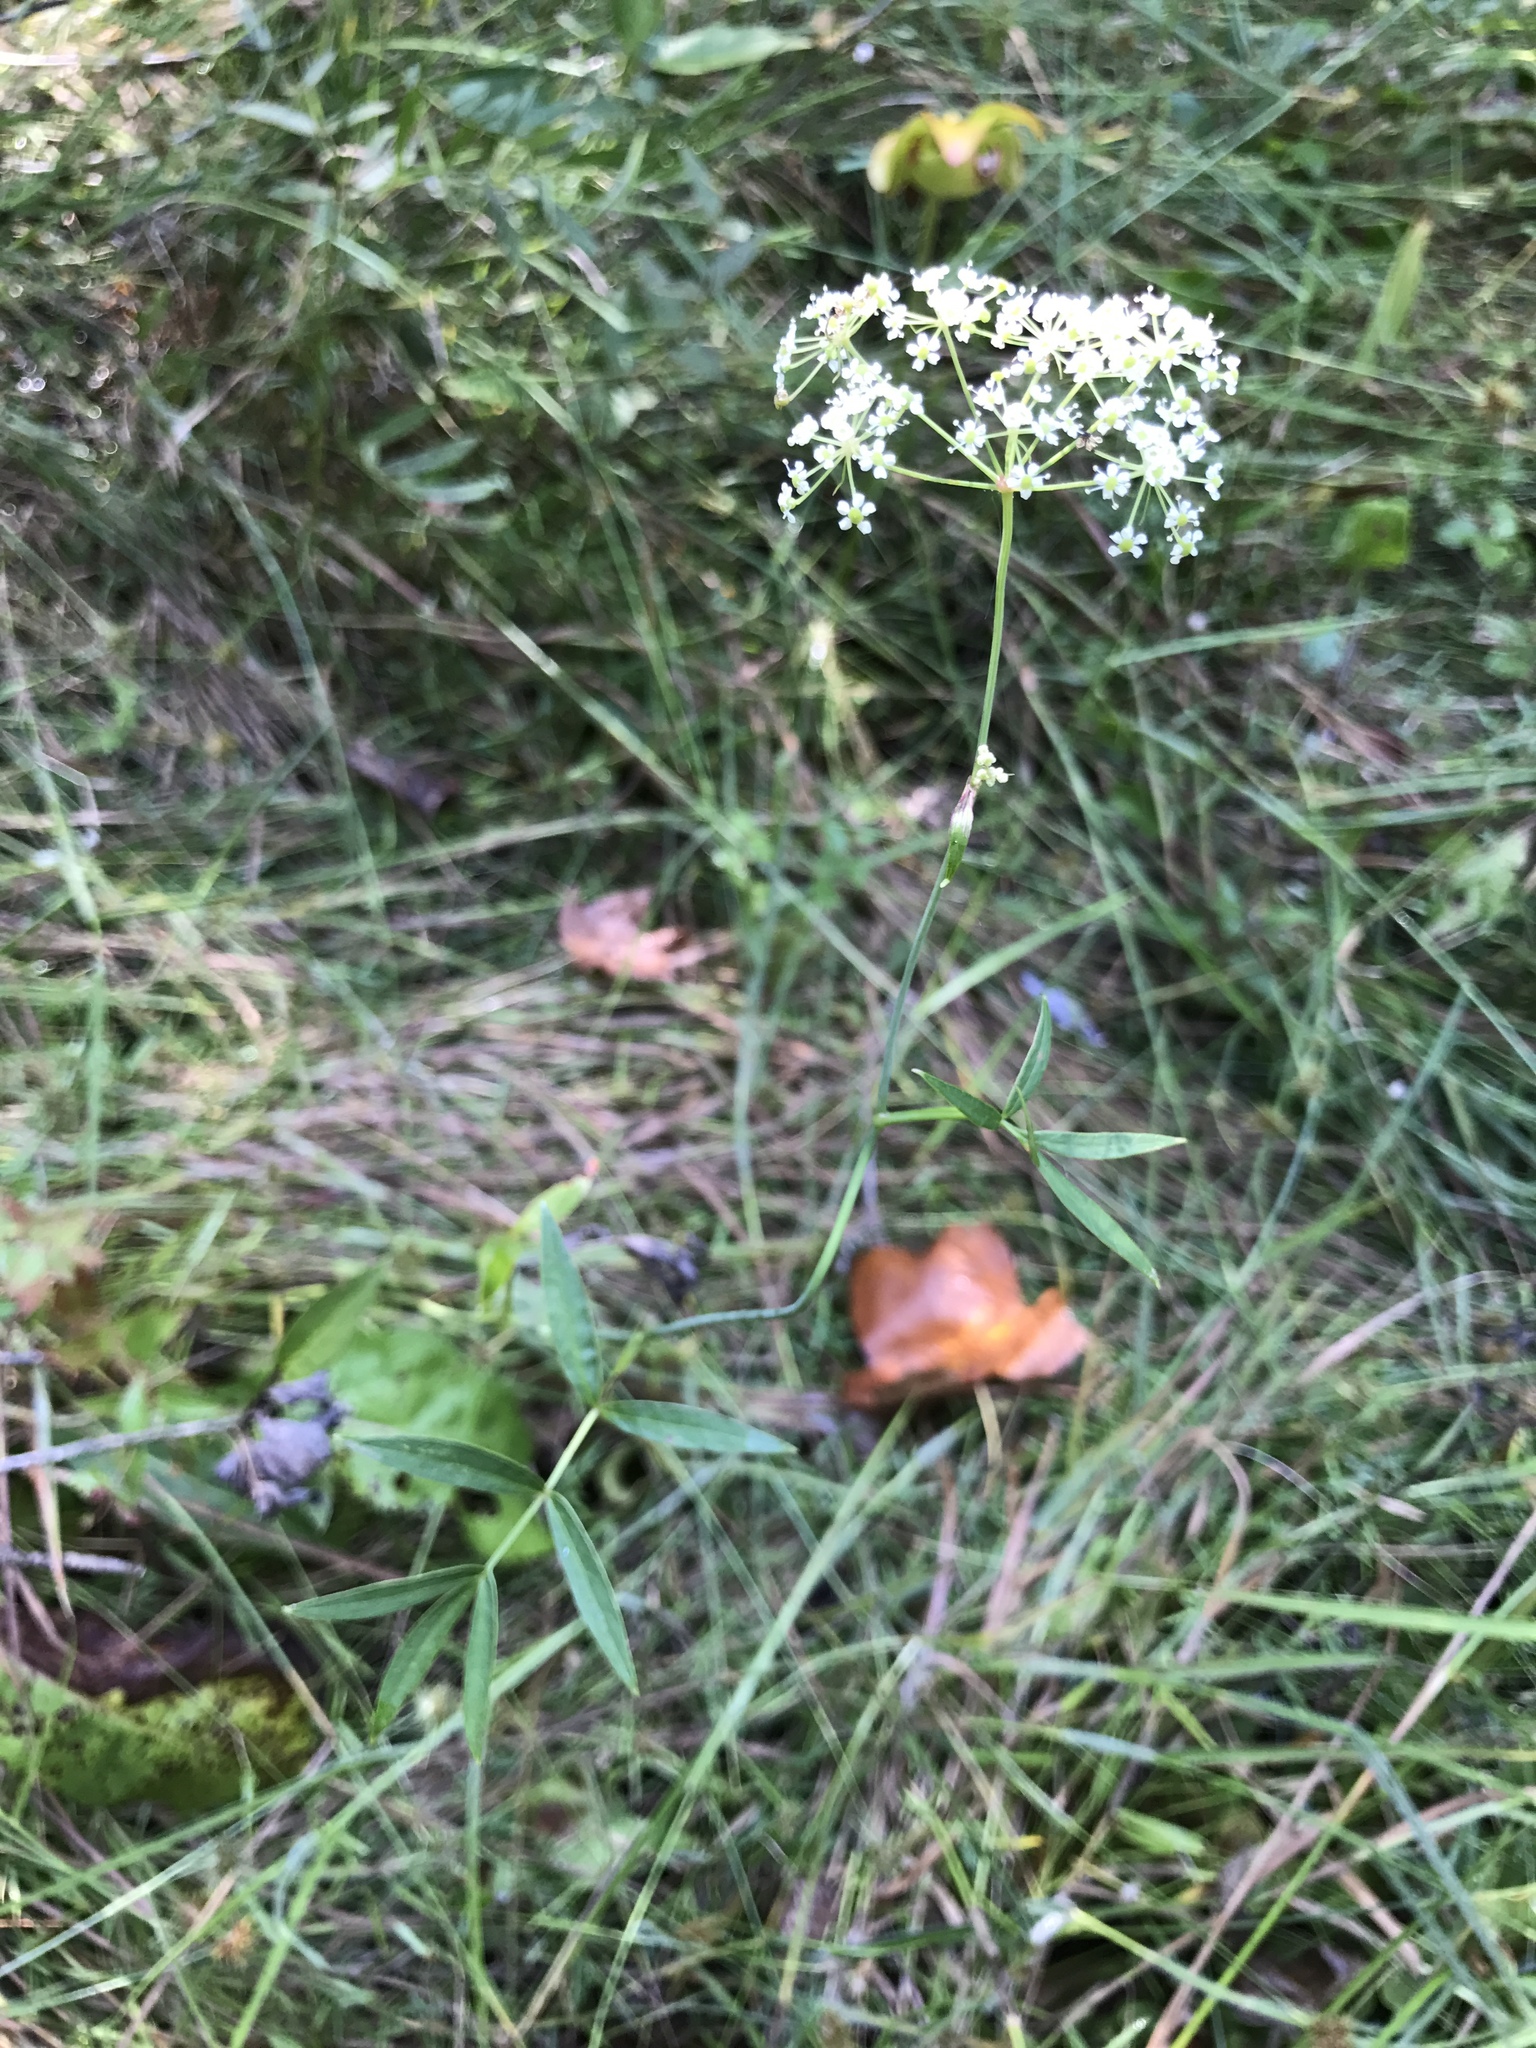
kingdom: Plantae
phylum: Tracheophyta
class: Magnoliopsida
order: Apiales
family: Apiaceae
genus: Oxypolis
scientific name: Oxypolis rigidior
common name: Cowbane
